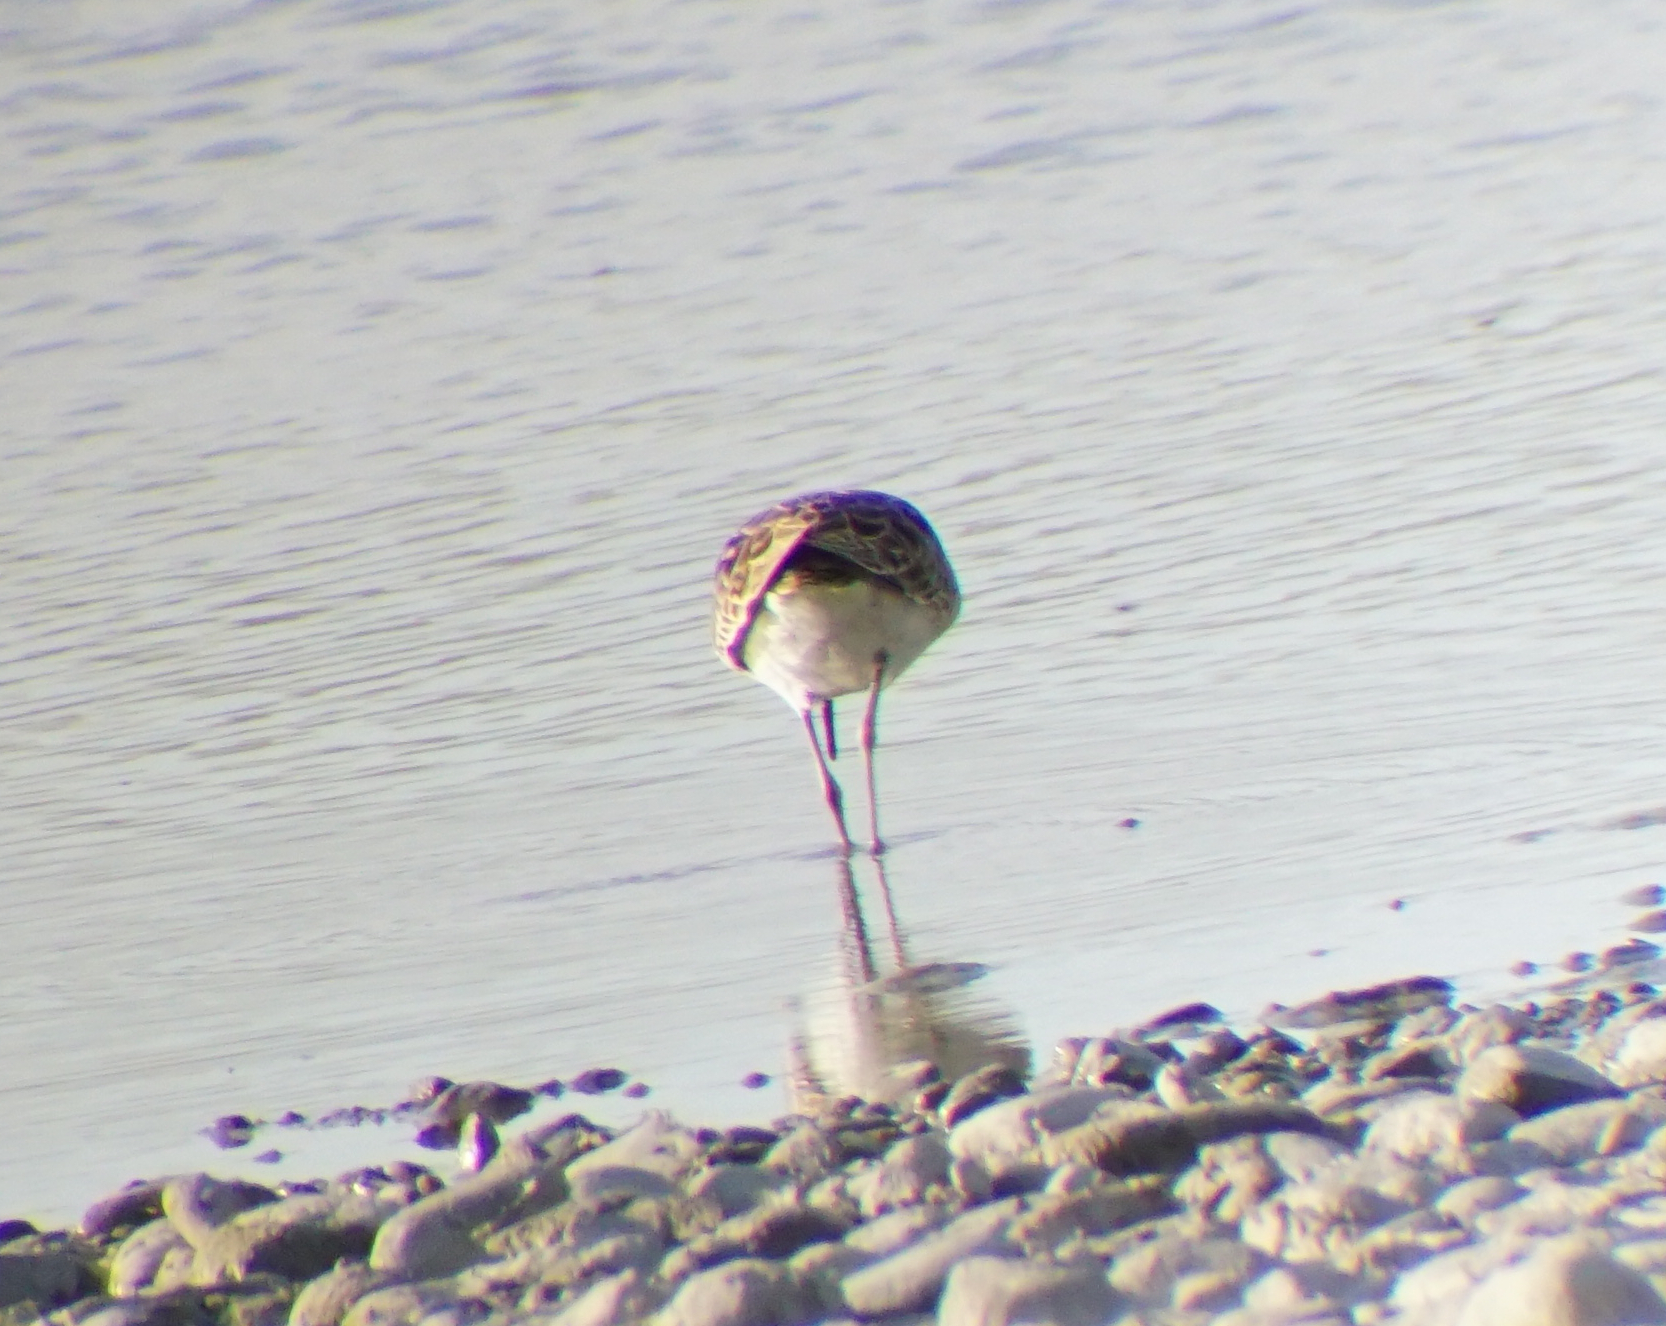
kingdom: Animalia
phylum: Chordata
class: Aves
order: Charadriiformes
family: Scolopacidae
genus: Calidris
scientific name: Calidris pugnax
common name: Ruff
